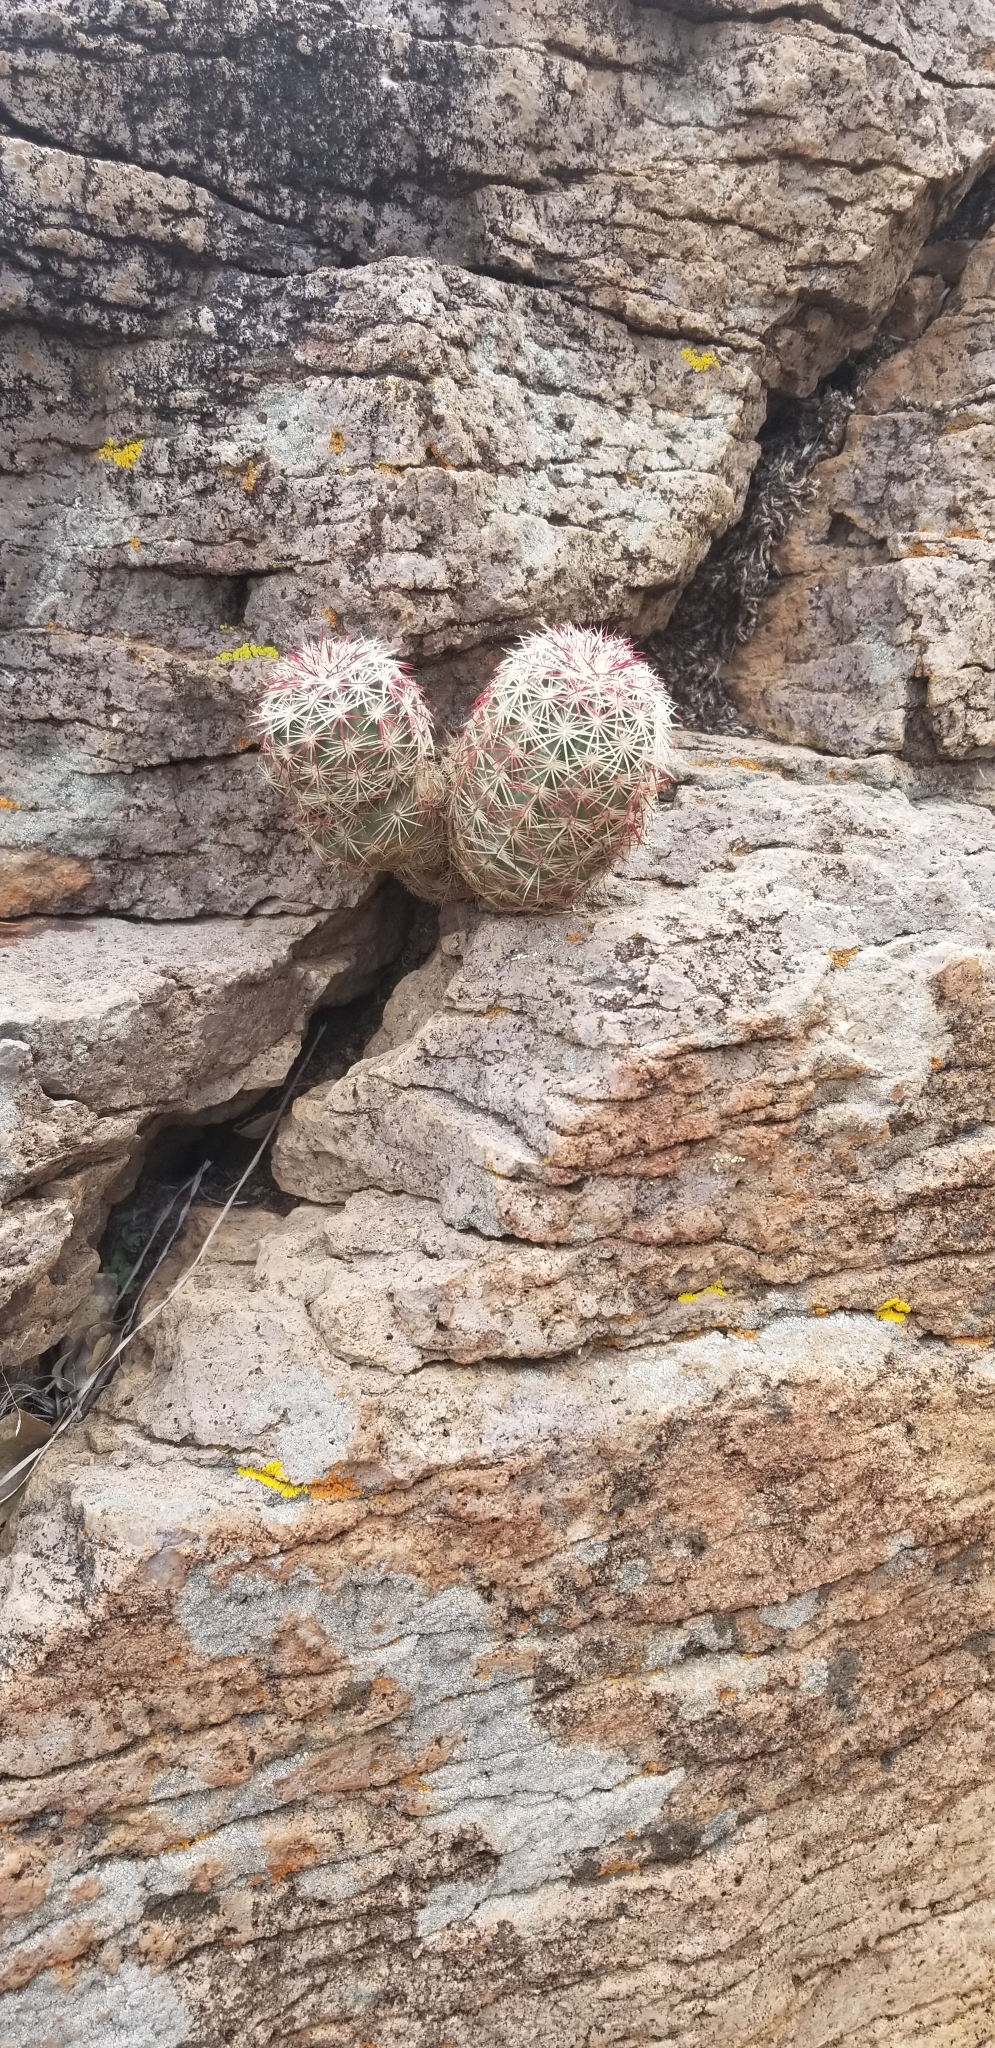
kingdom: Plantae
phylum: Tracheophyta
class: Magnoliopsida
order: Caryophyllales
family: Cactaceae
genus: Echinocereus
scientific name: Echinocereus viridiflorus
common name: Nylon hedgehog cactus
